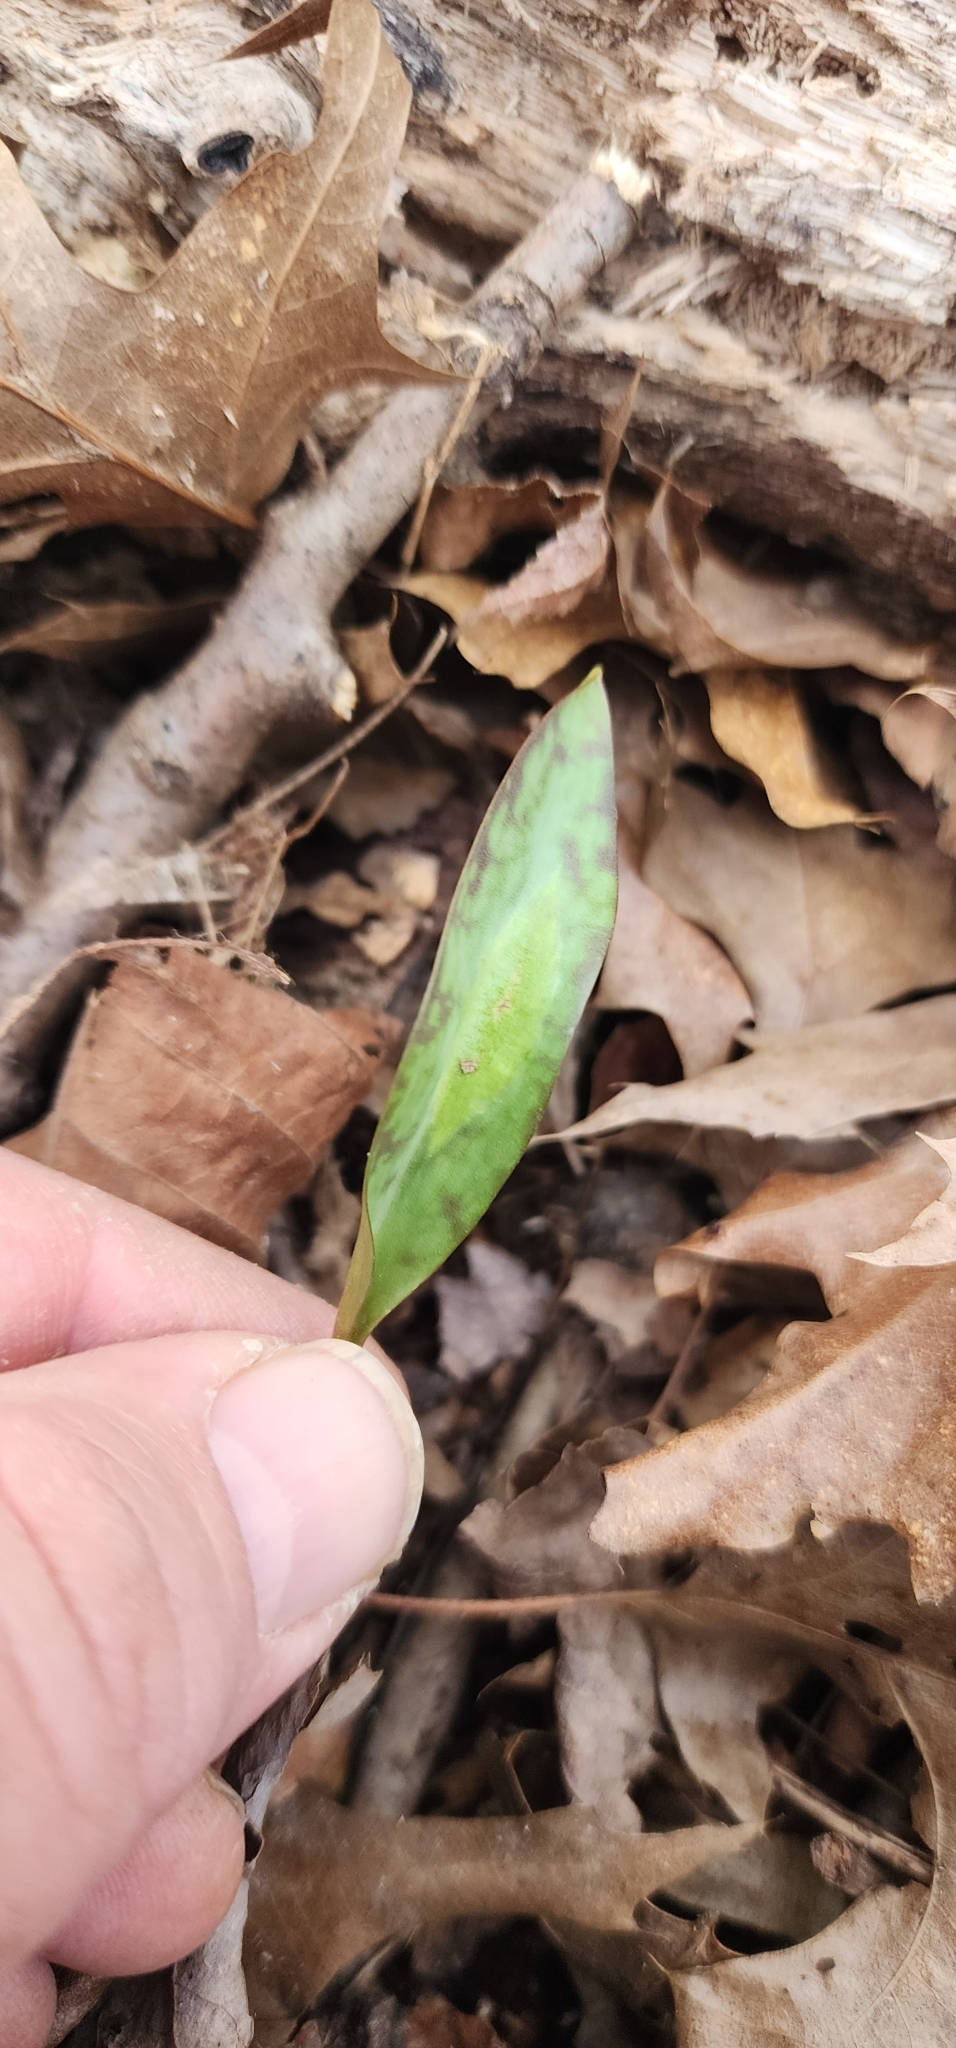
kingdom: Plantae
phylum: Tracheophyta
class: Liliopsida
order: Liliales
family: Liliaceae
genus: Erythronium
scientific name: Erythronium americanum
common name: Yellow adder's-tongue
